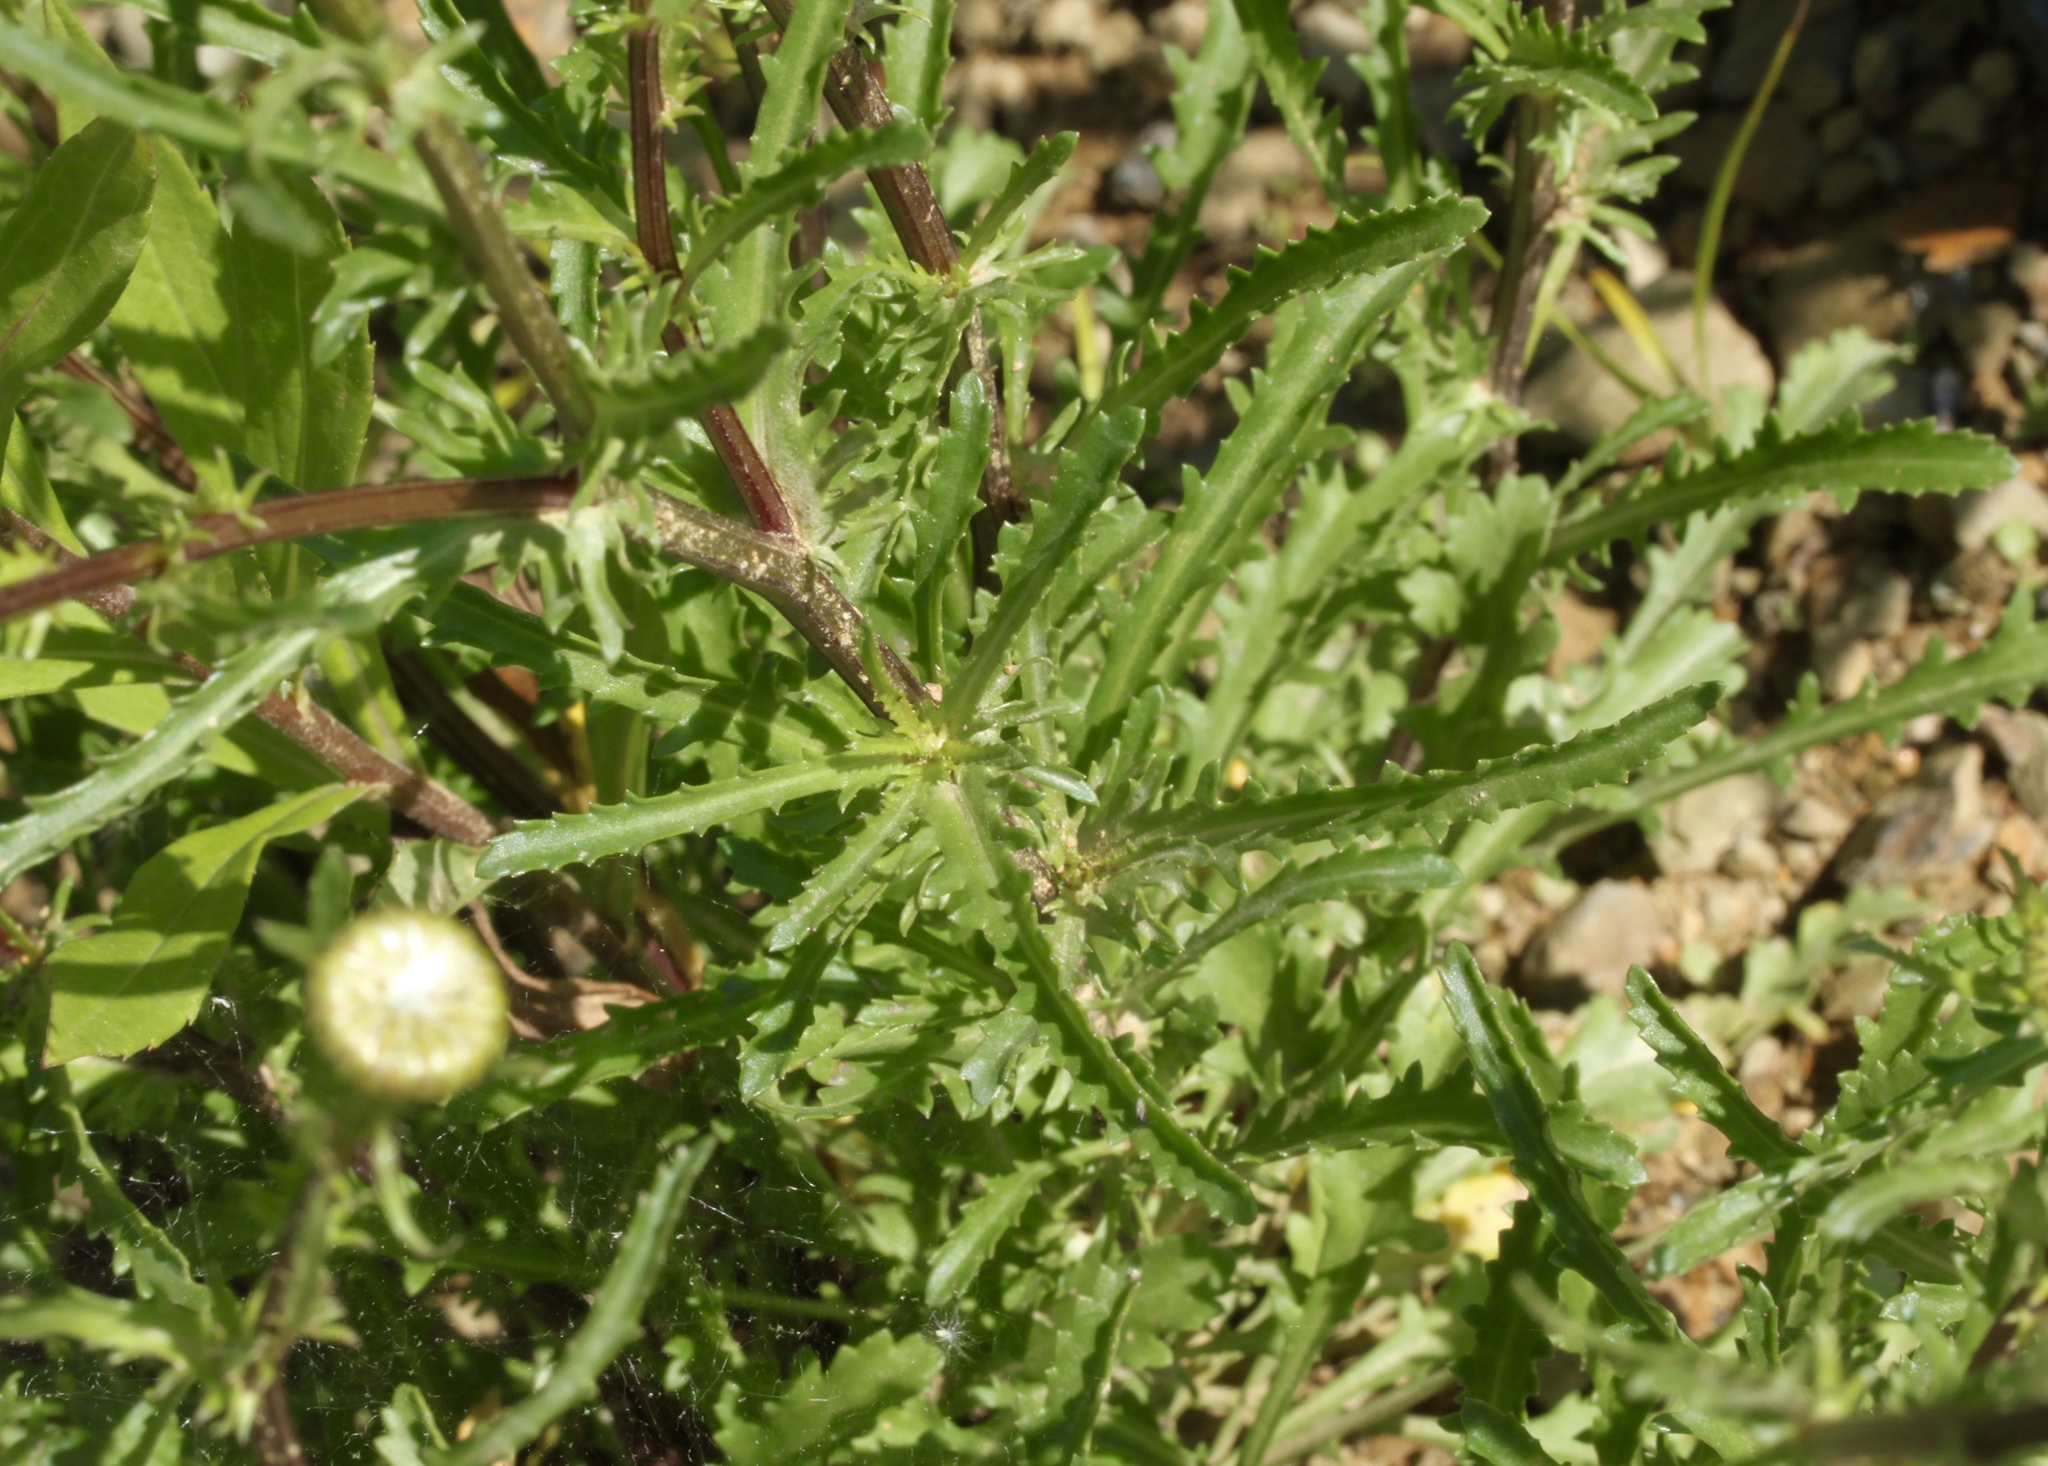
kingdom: Plantae
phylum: Tracheophyta
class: Magnoliopsida
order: Asterales
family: Asteraceae
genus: Leucanthemum
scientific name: Leucanthemum vulgare
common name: Oxeye daisy
